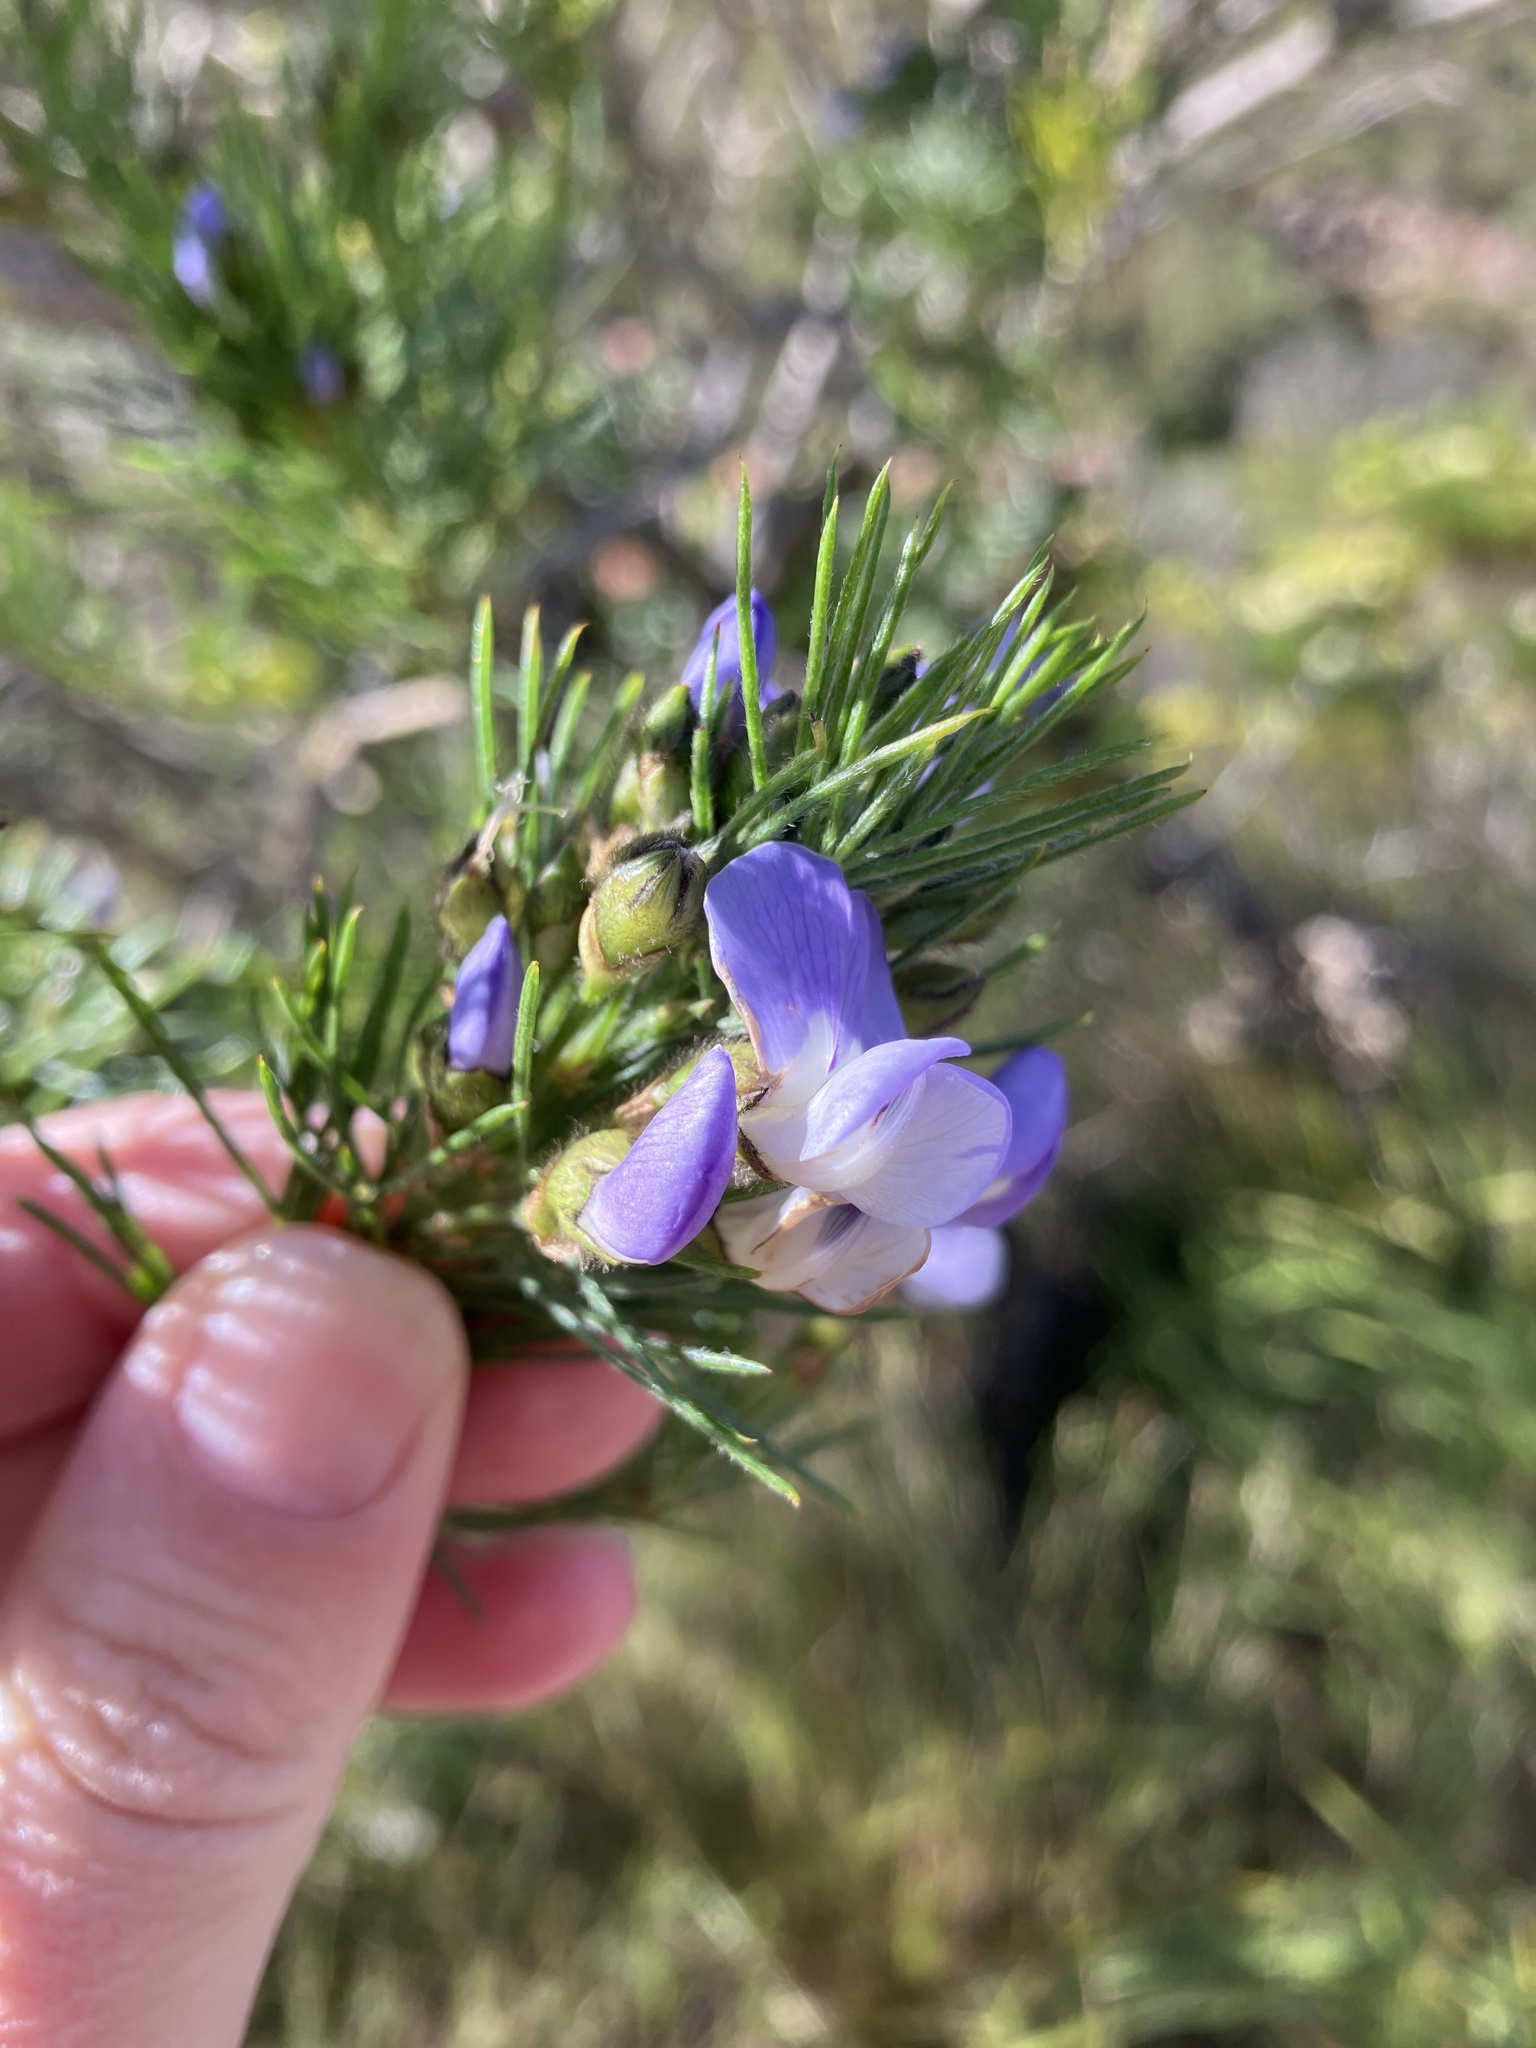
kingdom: Plantae
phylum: Tracheophyta
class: Magnoliopsida
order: Fabales
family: Fabaceae
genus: Psoralea
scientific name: Psoralea pinnata
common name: African scurfpea
